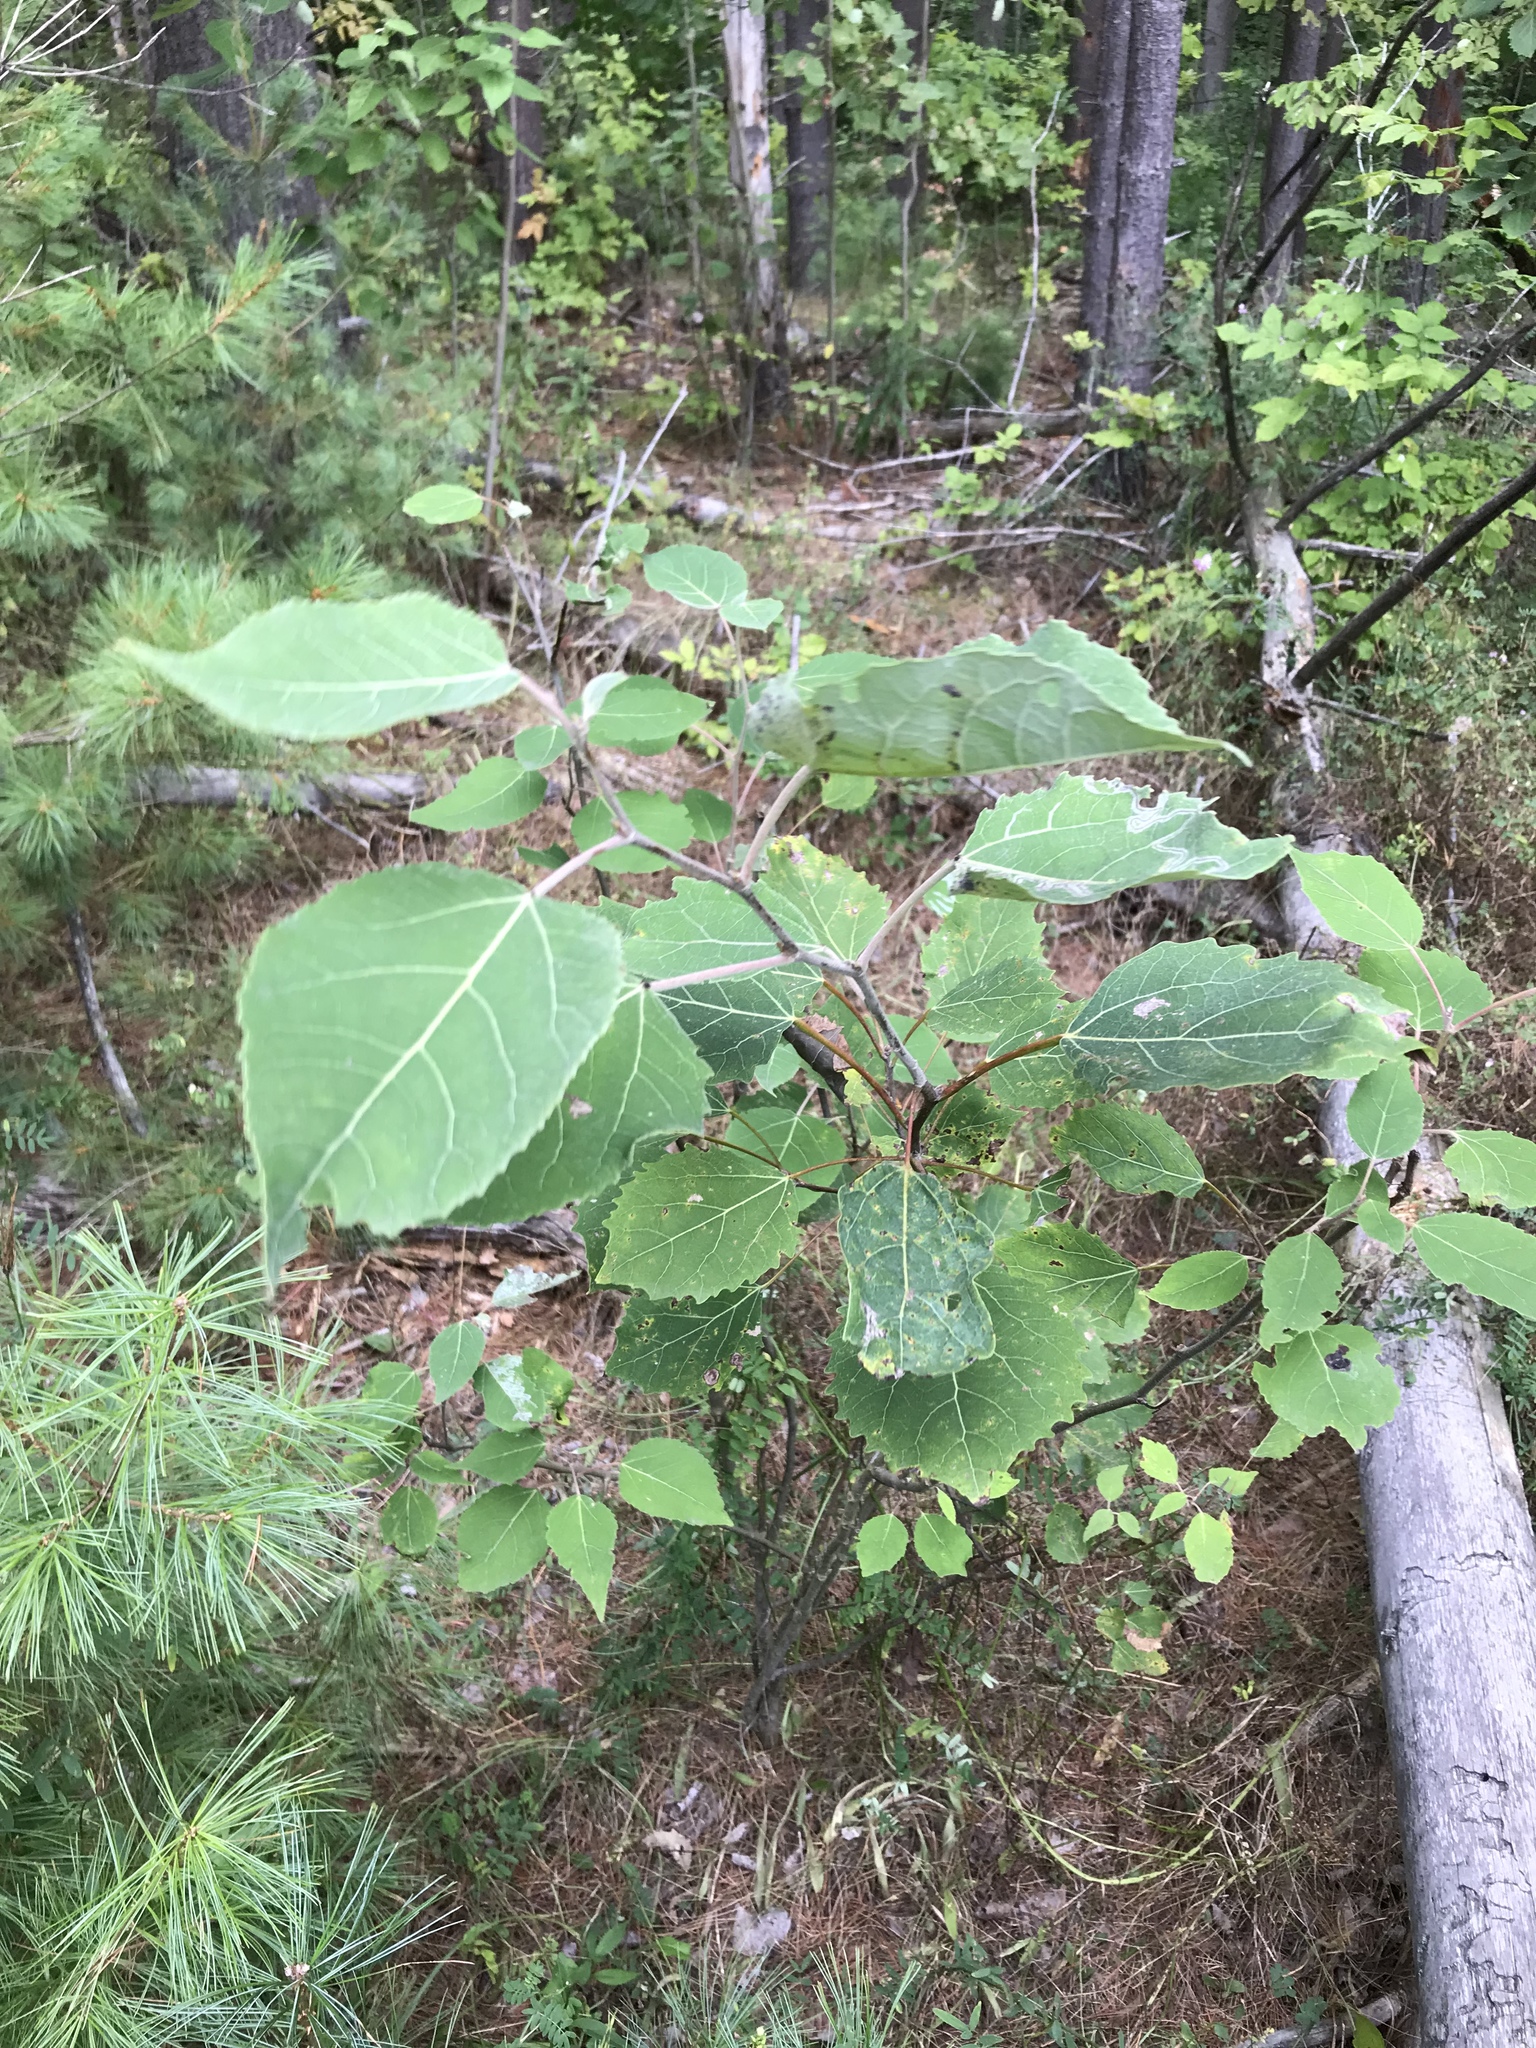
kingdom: Plantae
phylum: Tracheophyta
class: Magnoliopsida
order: Malpighiales
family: Salicaceae
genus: Populus
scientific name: Populus grandidentata
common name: Bigtooth aspen
